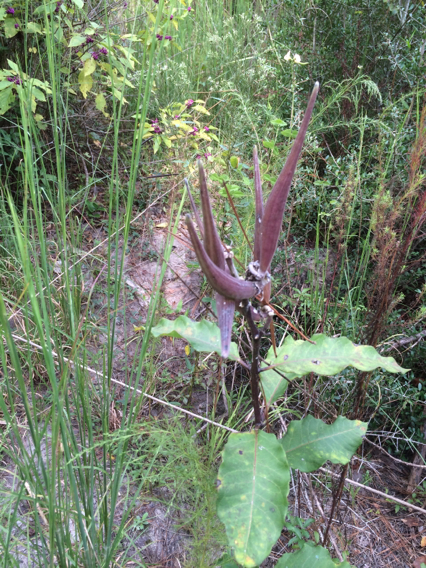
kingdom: Plantae
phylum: Tracheophyta
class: Magnoliopsida
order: Gentianales
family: Apocynaceae
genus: Asclepias
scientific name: Asclepias variegata
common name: Variegated milkweed
